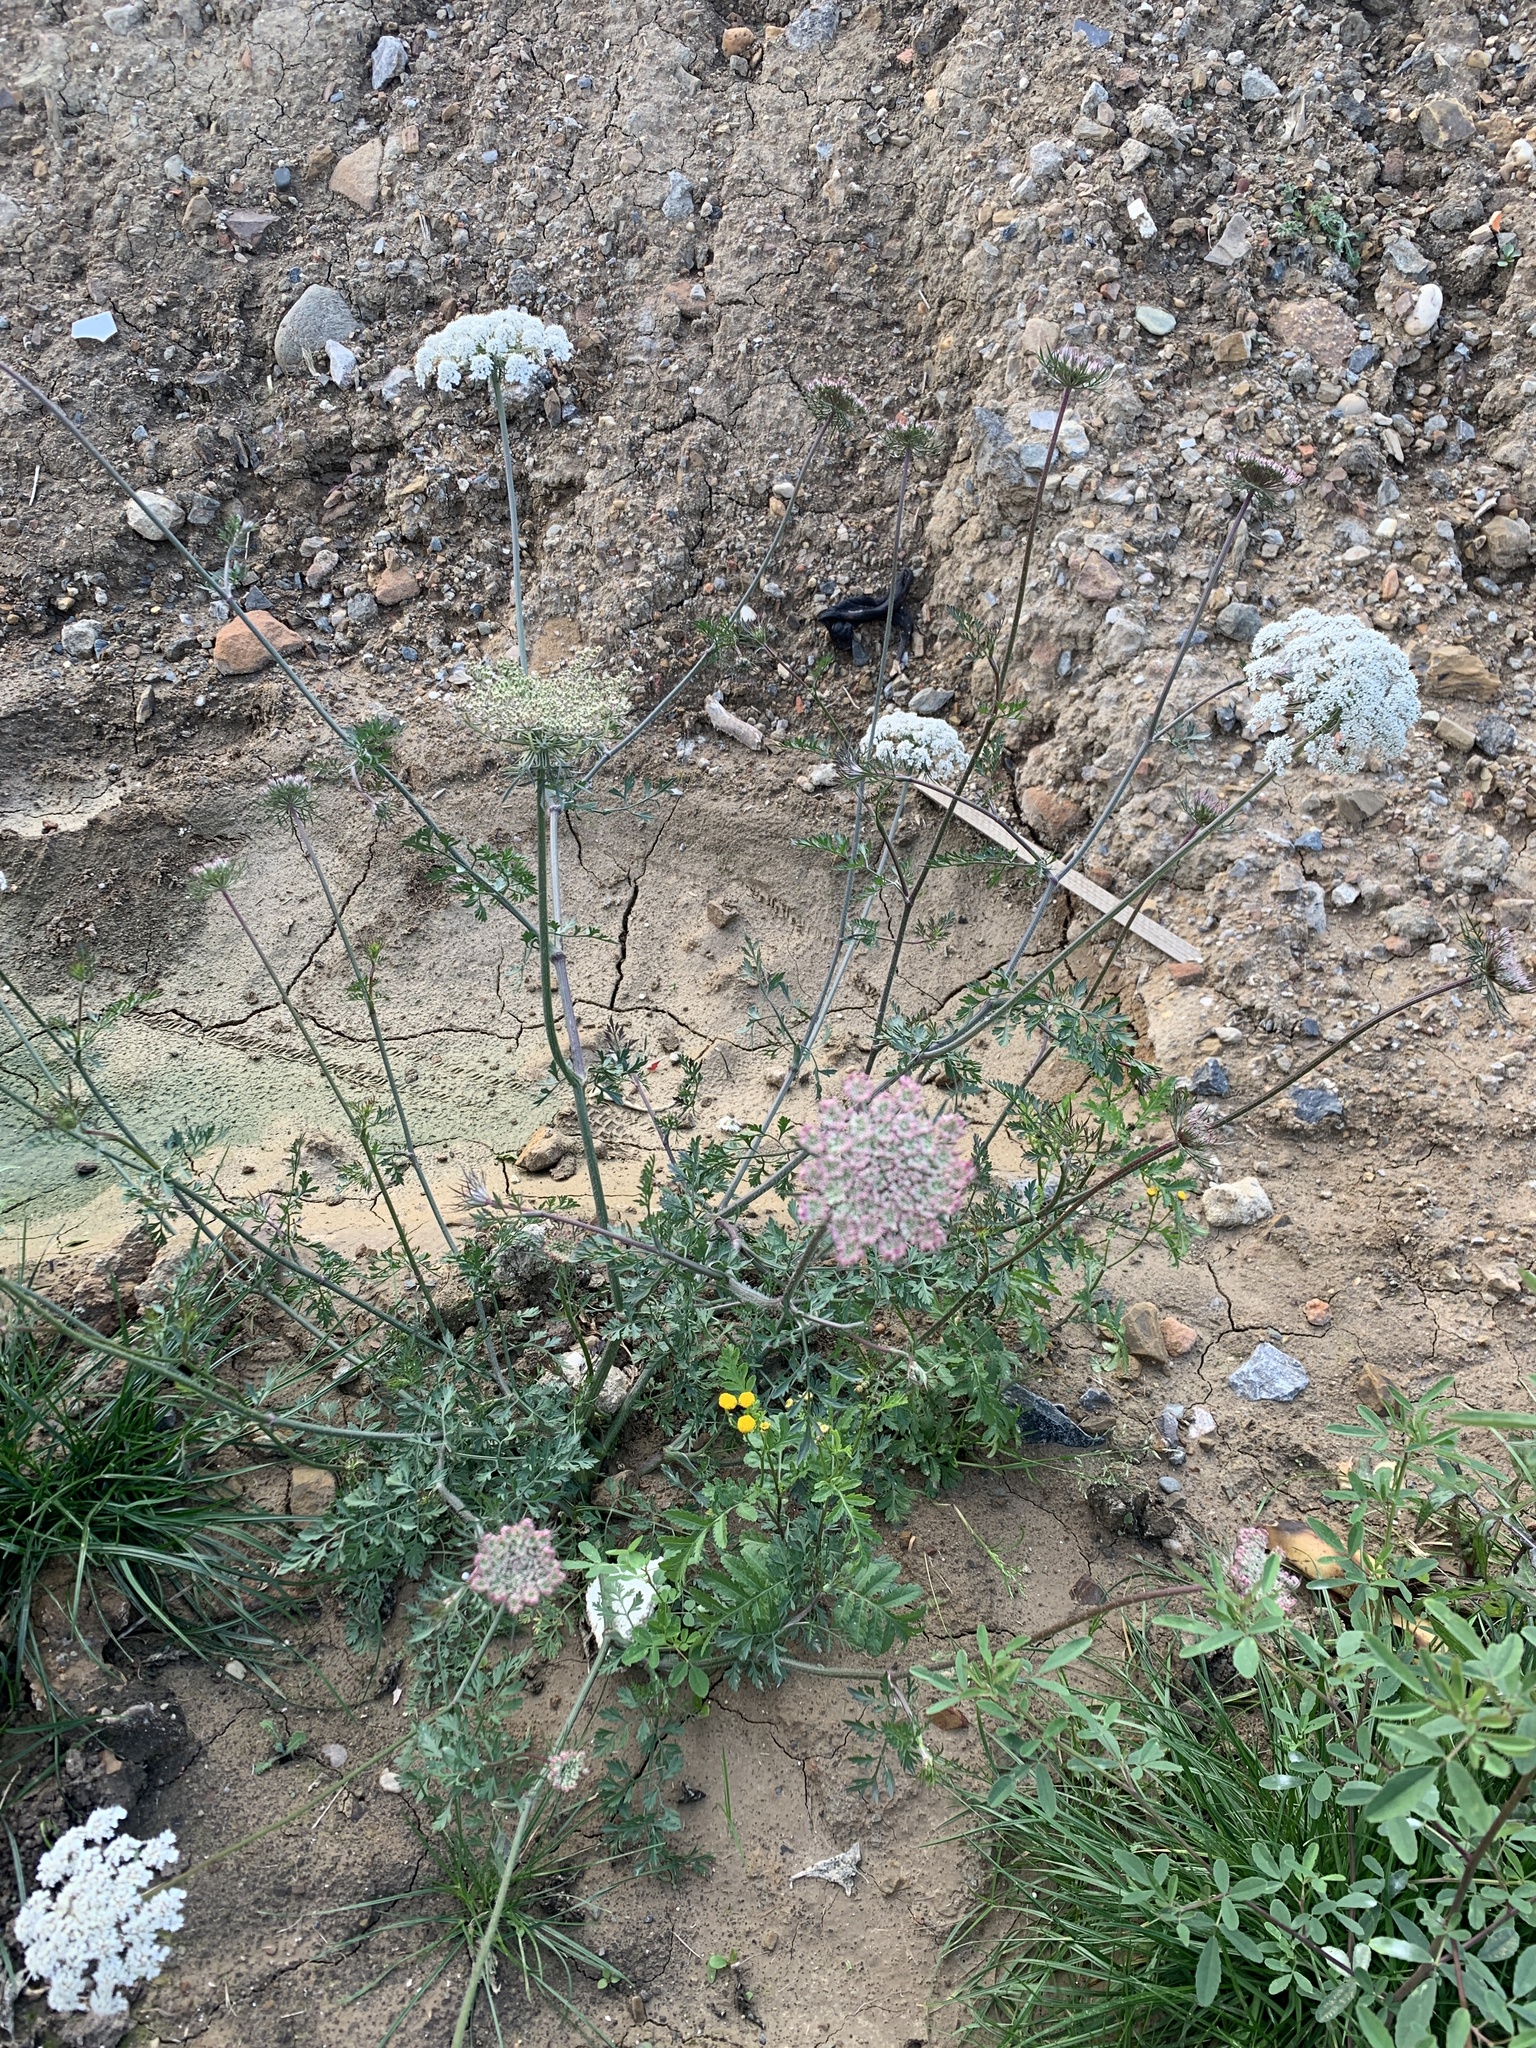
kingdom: Plantae
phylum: Tracheophyta
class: Magnoliopsida
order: Apiales
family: Apiaceae
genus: Daucus
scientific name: Daucus carota
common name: Wild carrot
